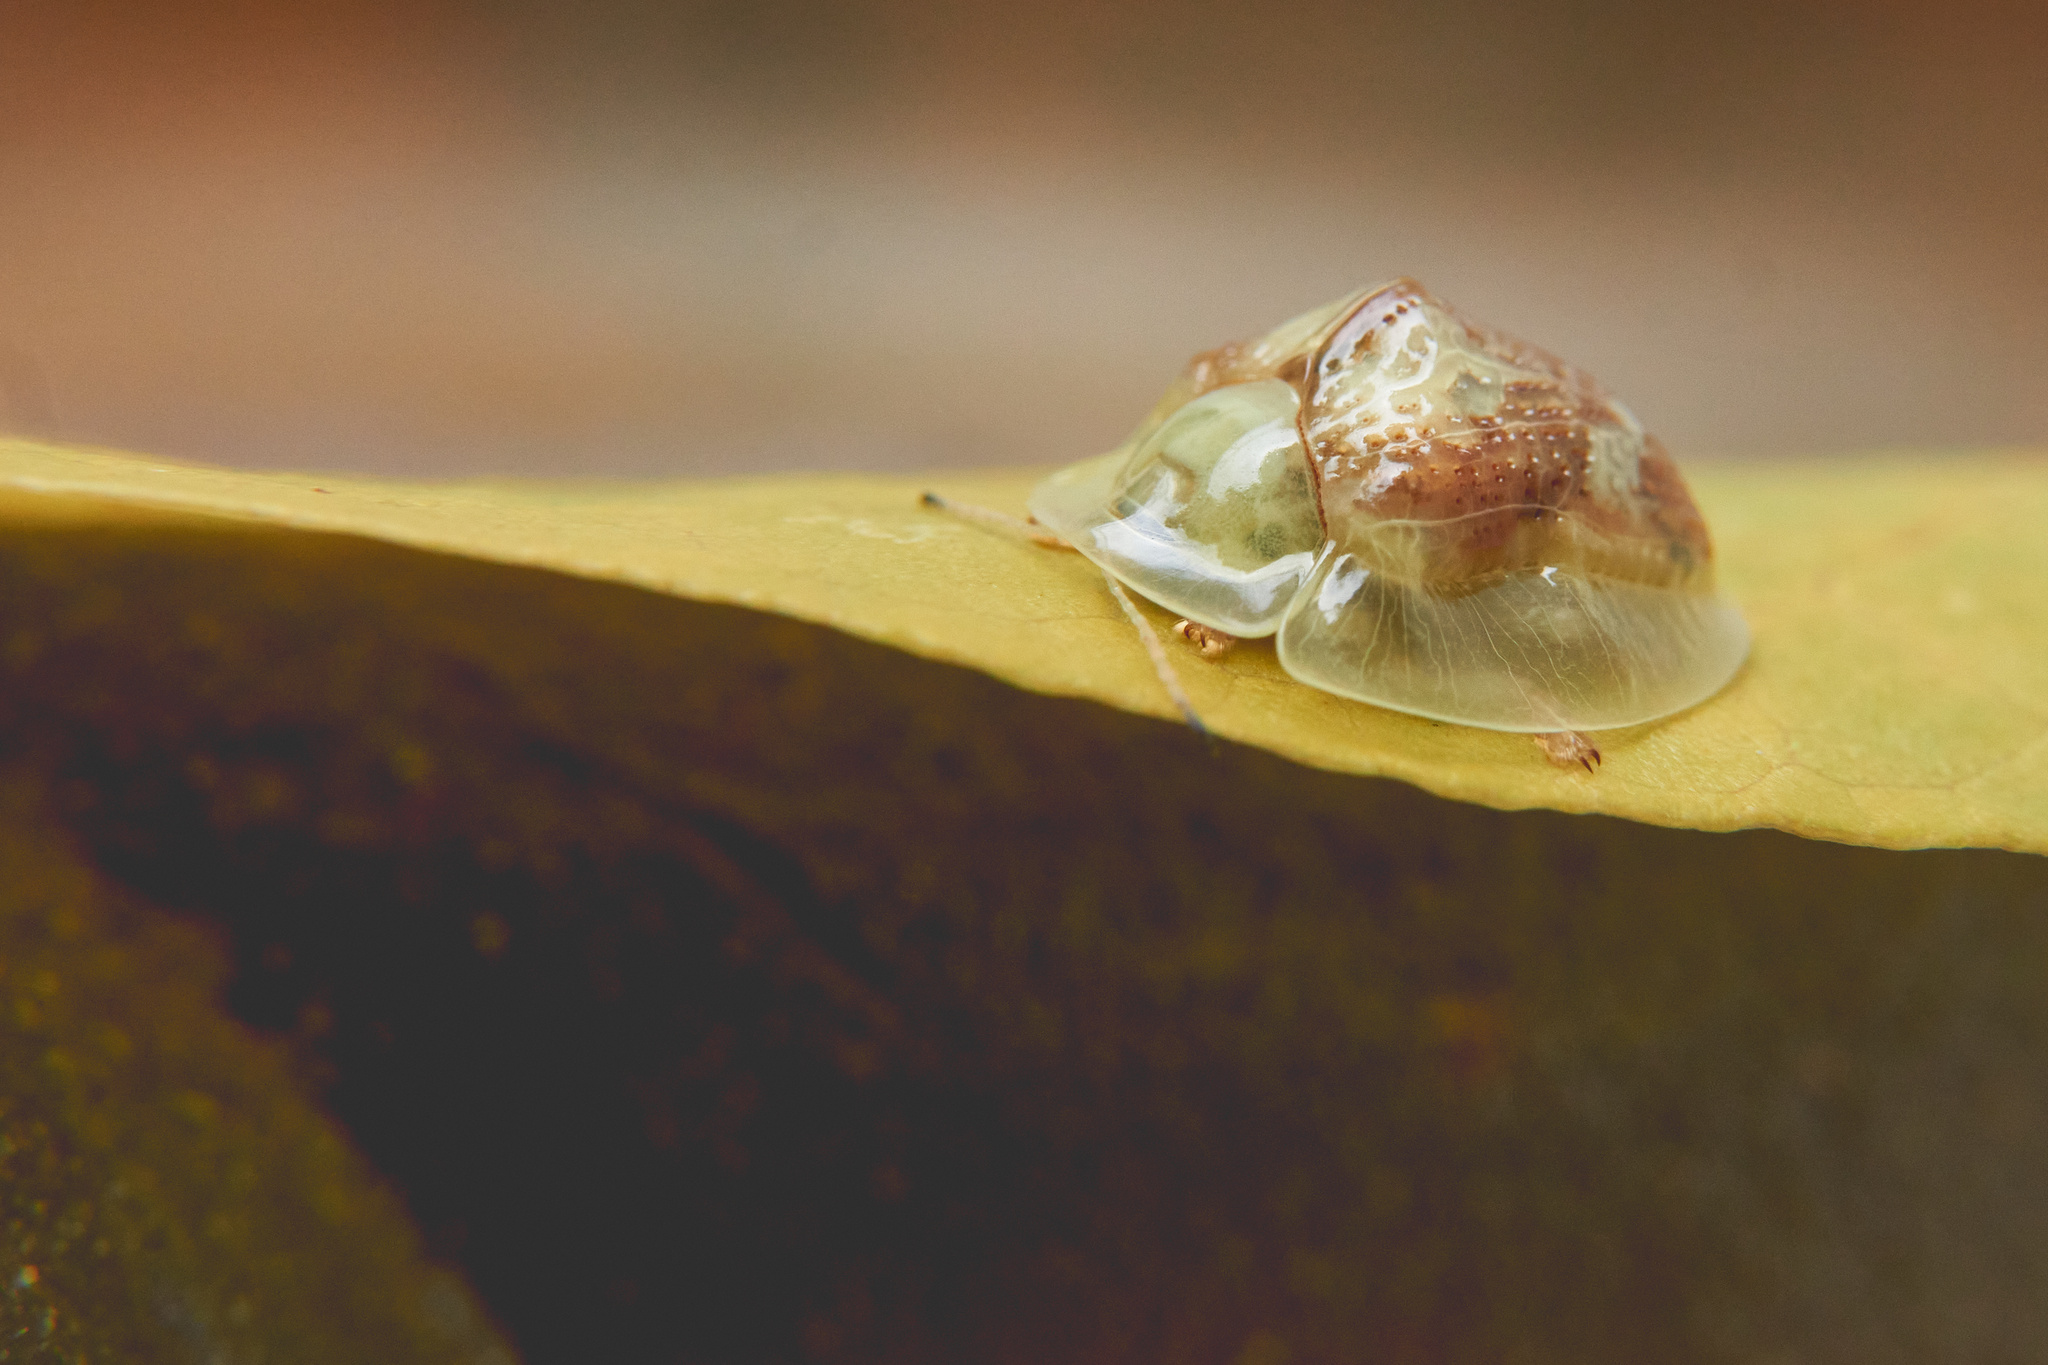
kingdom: Animalia
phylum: Arthropoda
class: Insecta
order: Coleoptera
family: Chrysomelidae
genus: Coptocycla
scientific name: Coptocycla leprosa
